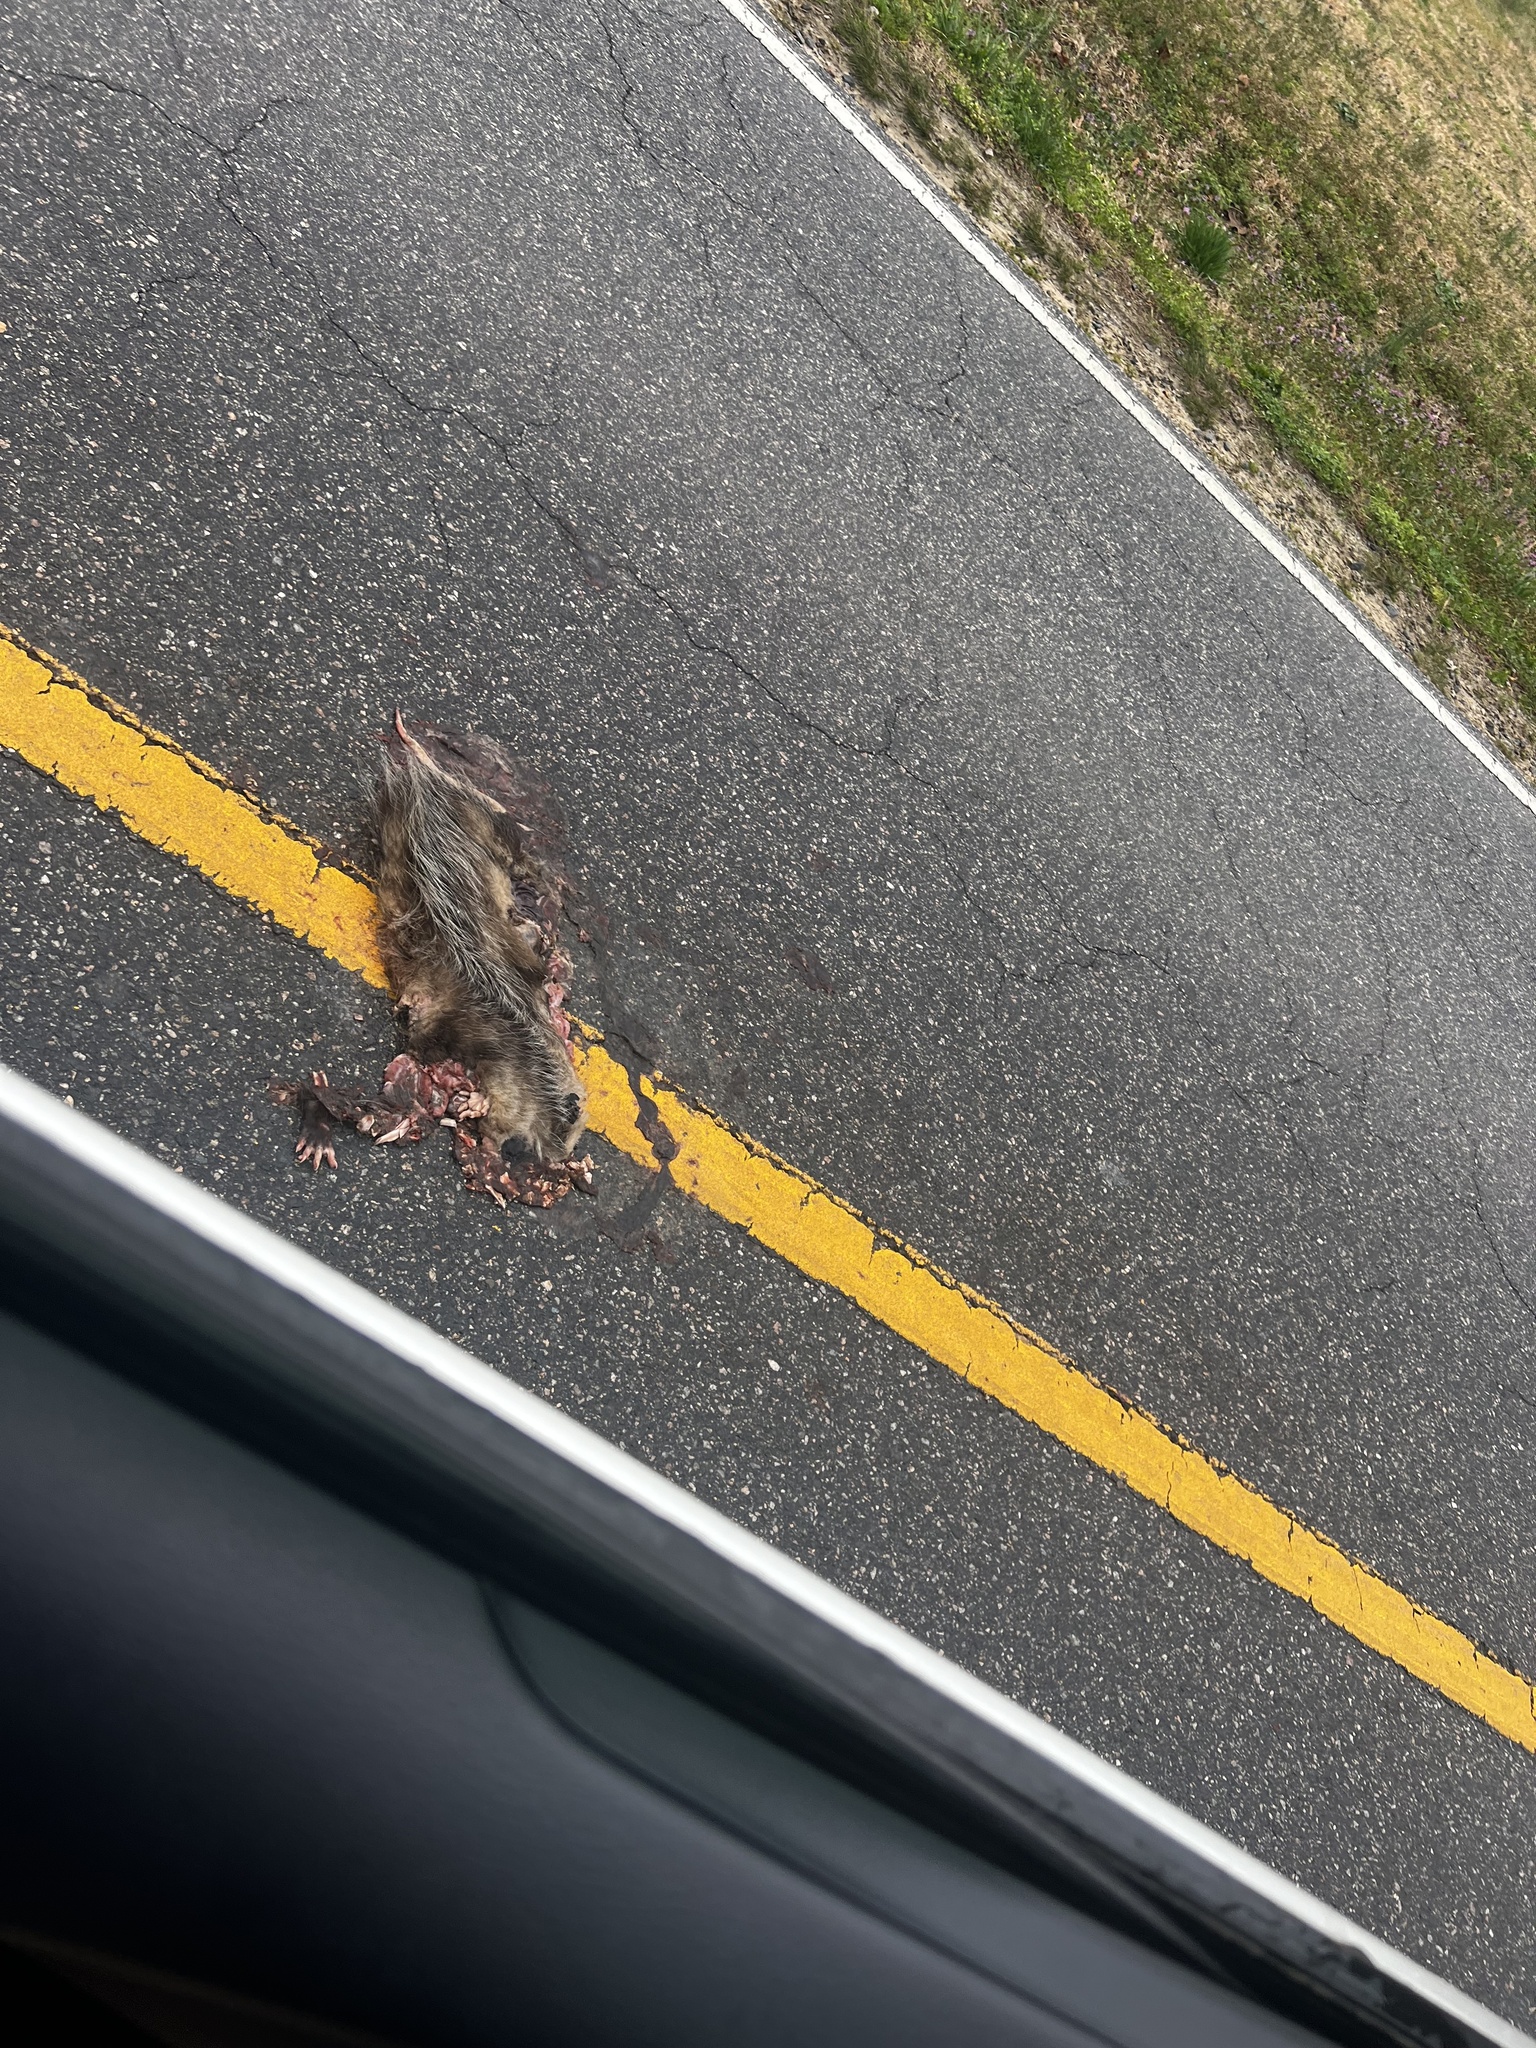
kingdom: Animalia
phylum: Chordata
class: Mammalia
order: Didelphimorphia
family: Didelphidae
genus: Didelphis
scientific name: Didelphis virginiana
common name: Virginia opossum
